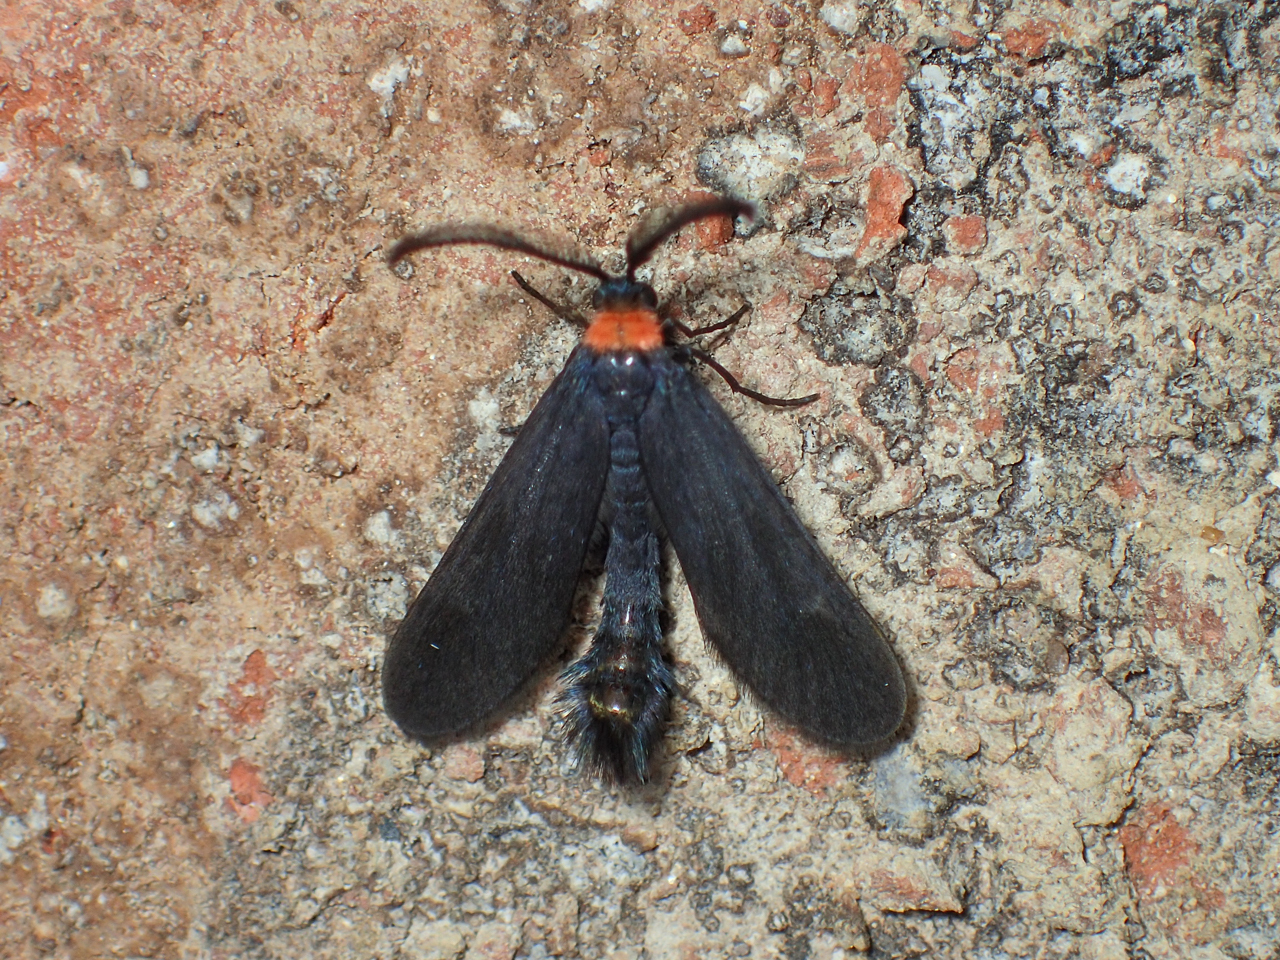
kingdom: Animalia
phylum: Arthropoda
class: Insecta
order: Lepidoptera
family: Zygaenidae
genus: Harrisina
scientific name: Harrisina americana
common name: Grapeleaf skeletonizer moth
